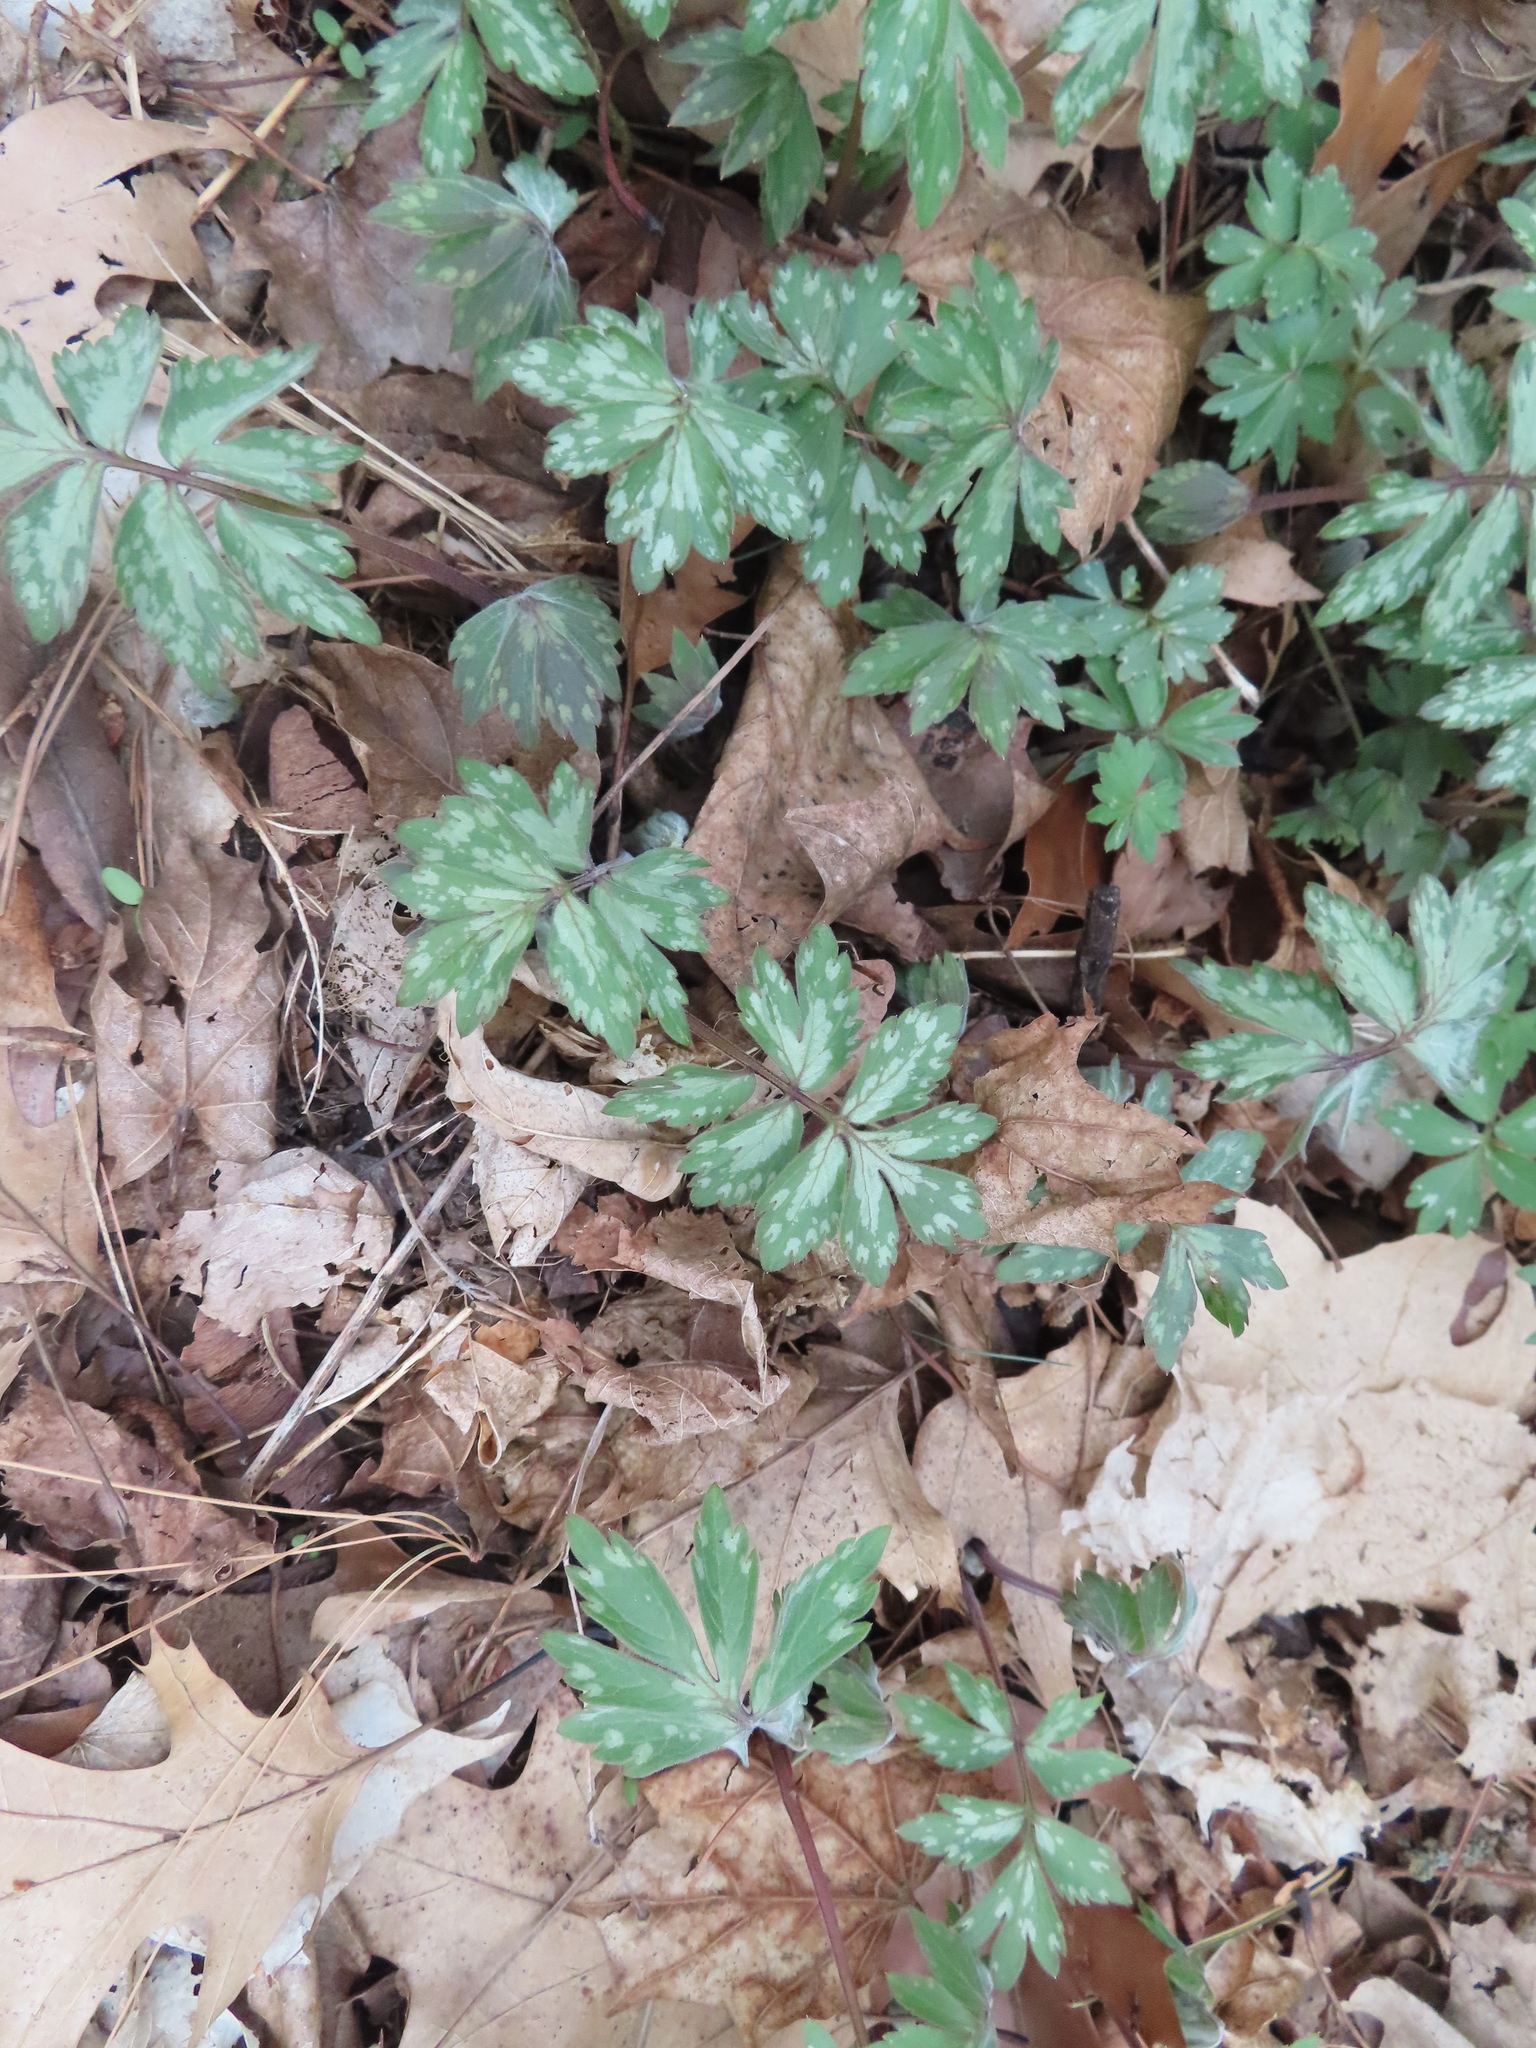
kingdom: Plantae
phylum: Tracheophyta
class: Magnoliopsida
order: Boraginales
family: Hydrophyllaceae
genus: Hydrophyllum
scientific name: Hydrophyllum virginianum
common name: Virginia waterleaf
